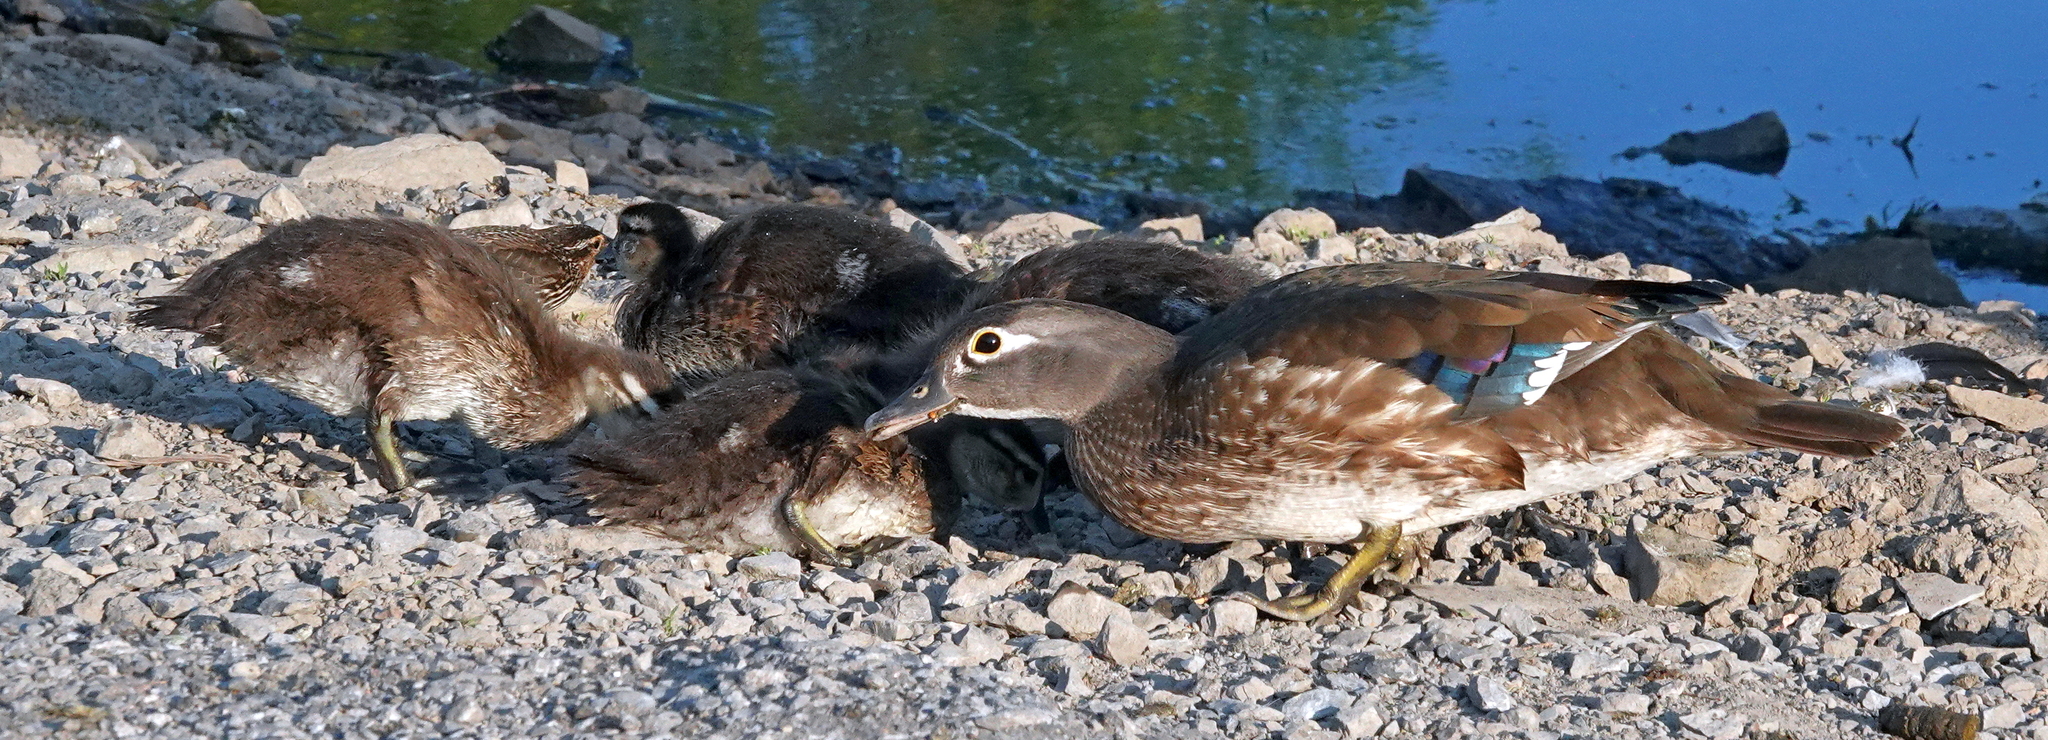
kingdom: Animalia
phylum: Chordata
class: Aves
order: Anseriformes
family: Anatidae
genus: Aix
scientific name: Aix sponsa
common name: Wood duck
